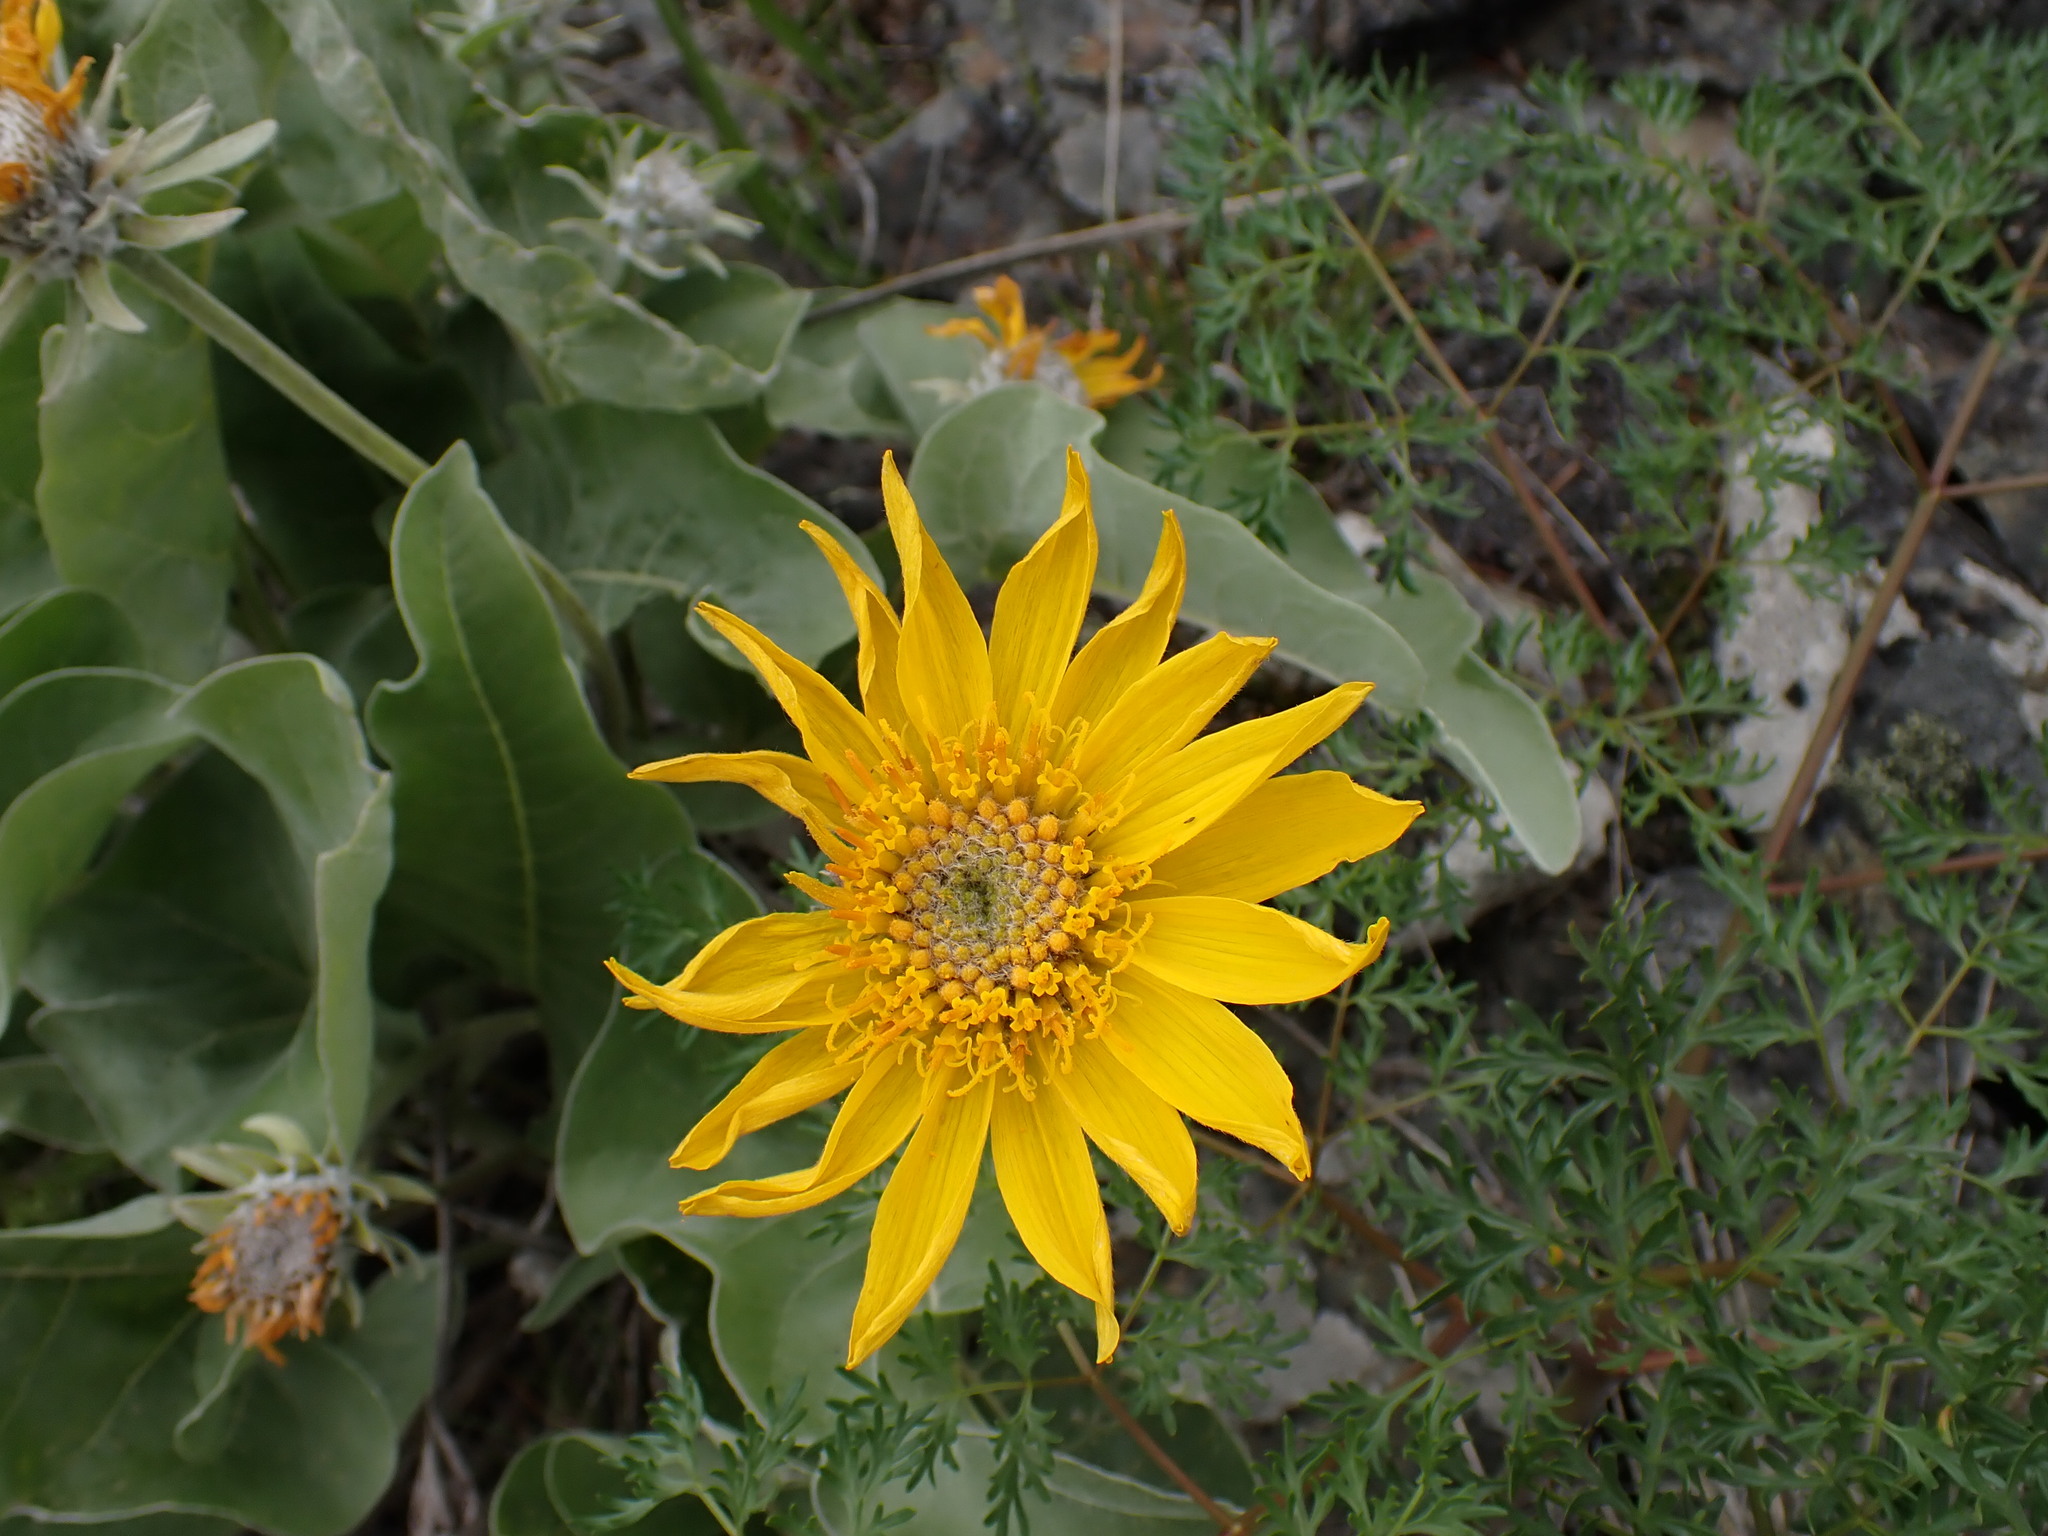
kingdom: Plantae
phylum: Tracheophyta
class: Magnoliopsida
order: Asterales
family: Asteraceae
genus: Wyethia
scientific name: Wyethia sagittata
